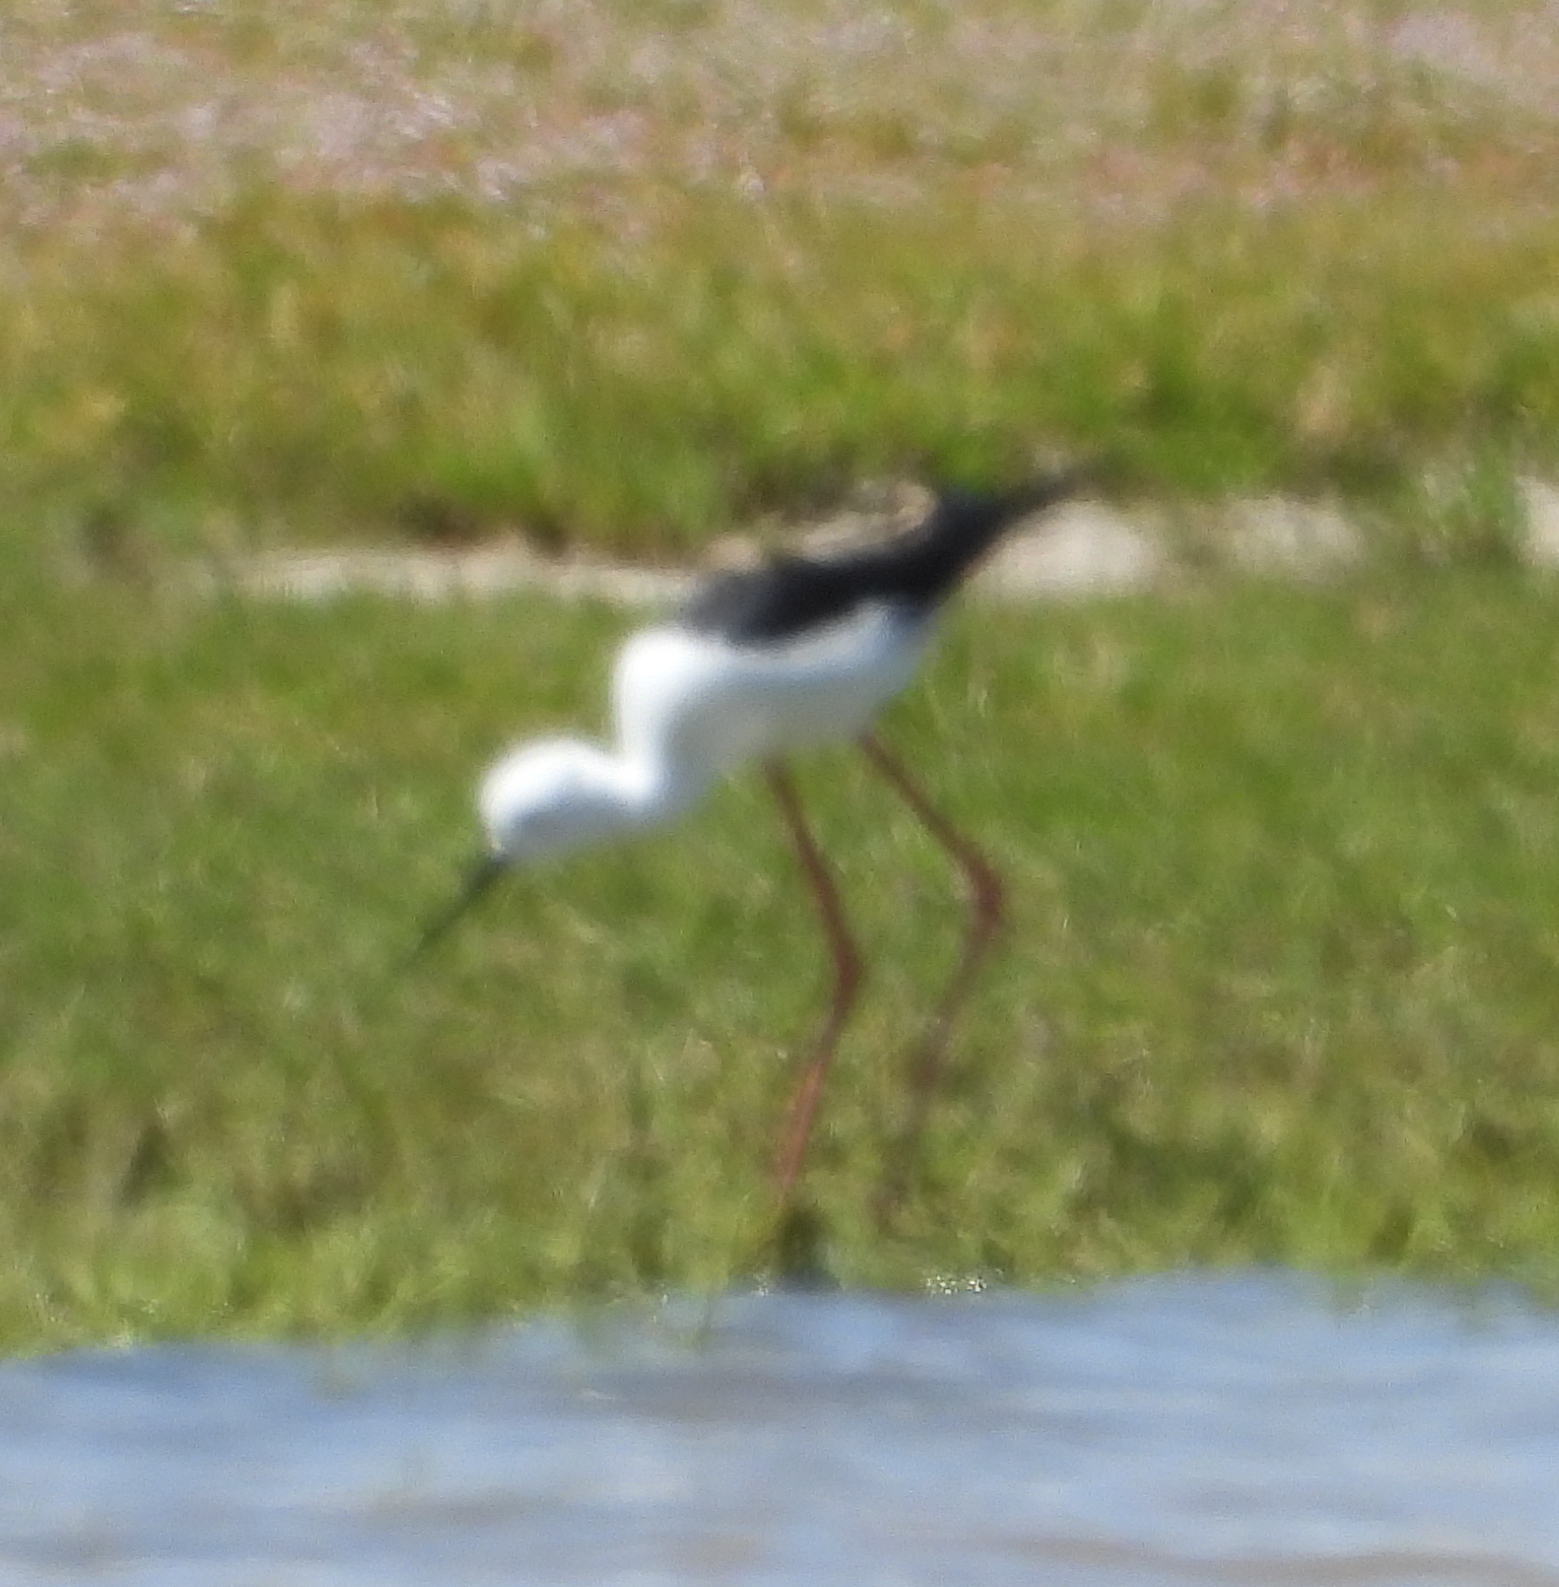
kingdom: Animalia
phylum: Chordata
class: Aves
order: Charadriiformes
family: Recurvirostridae
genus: Himantopus
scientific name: Himantopus himantopus
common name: Black-winged stilt
